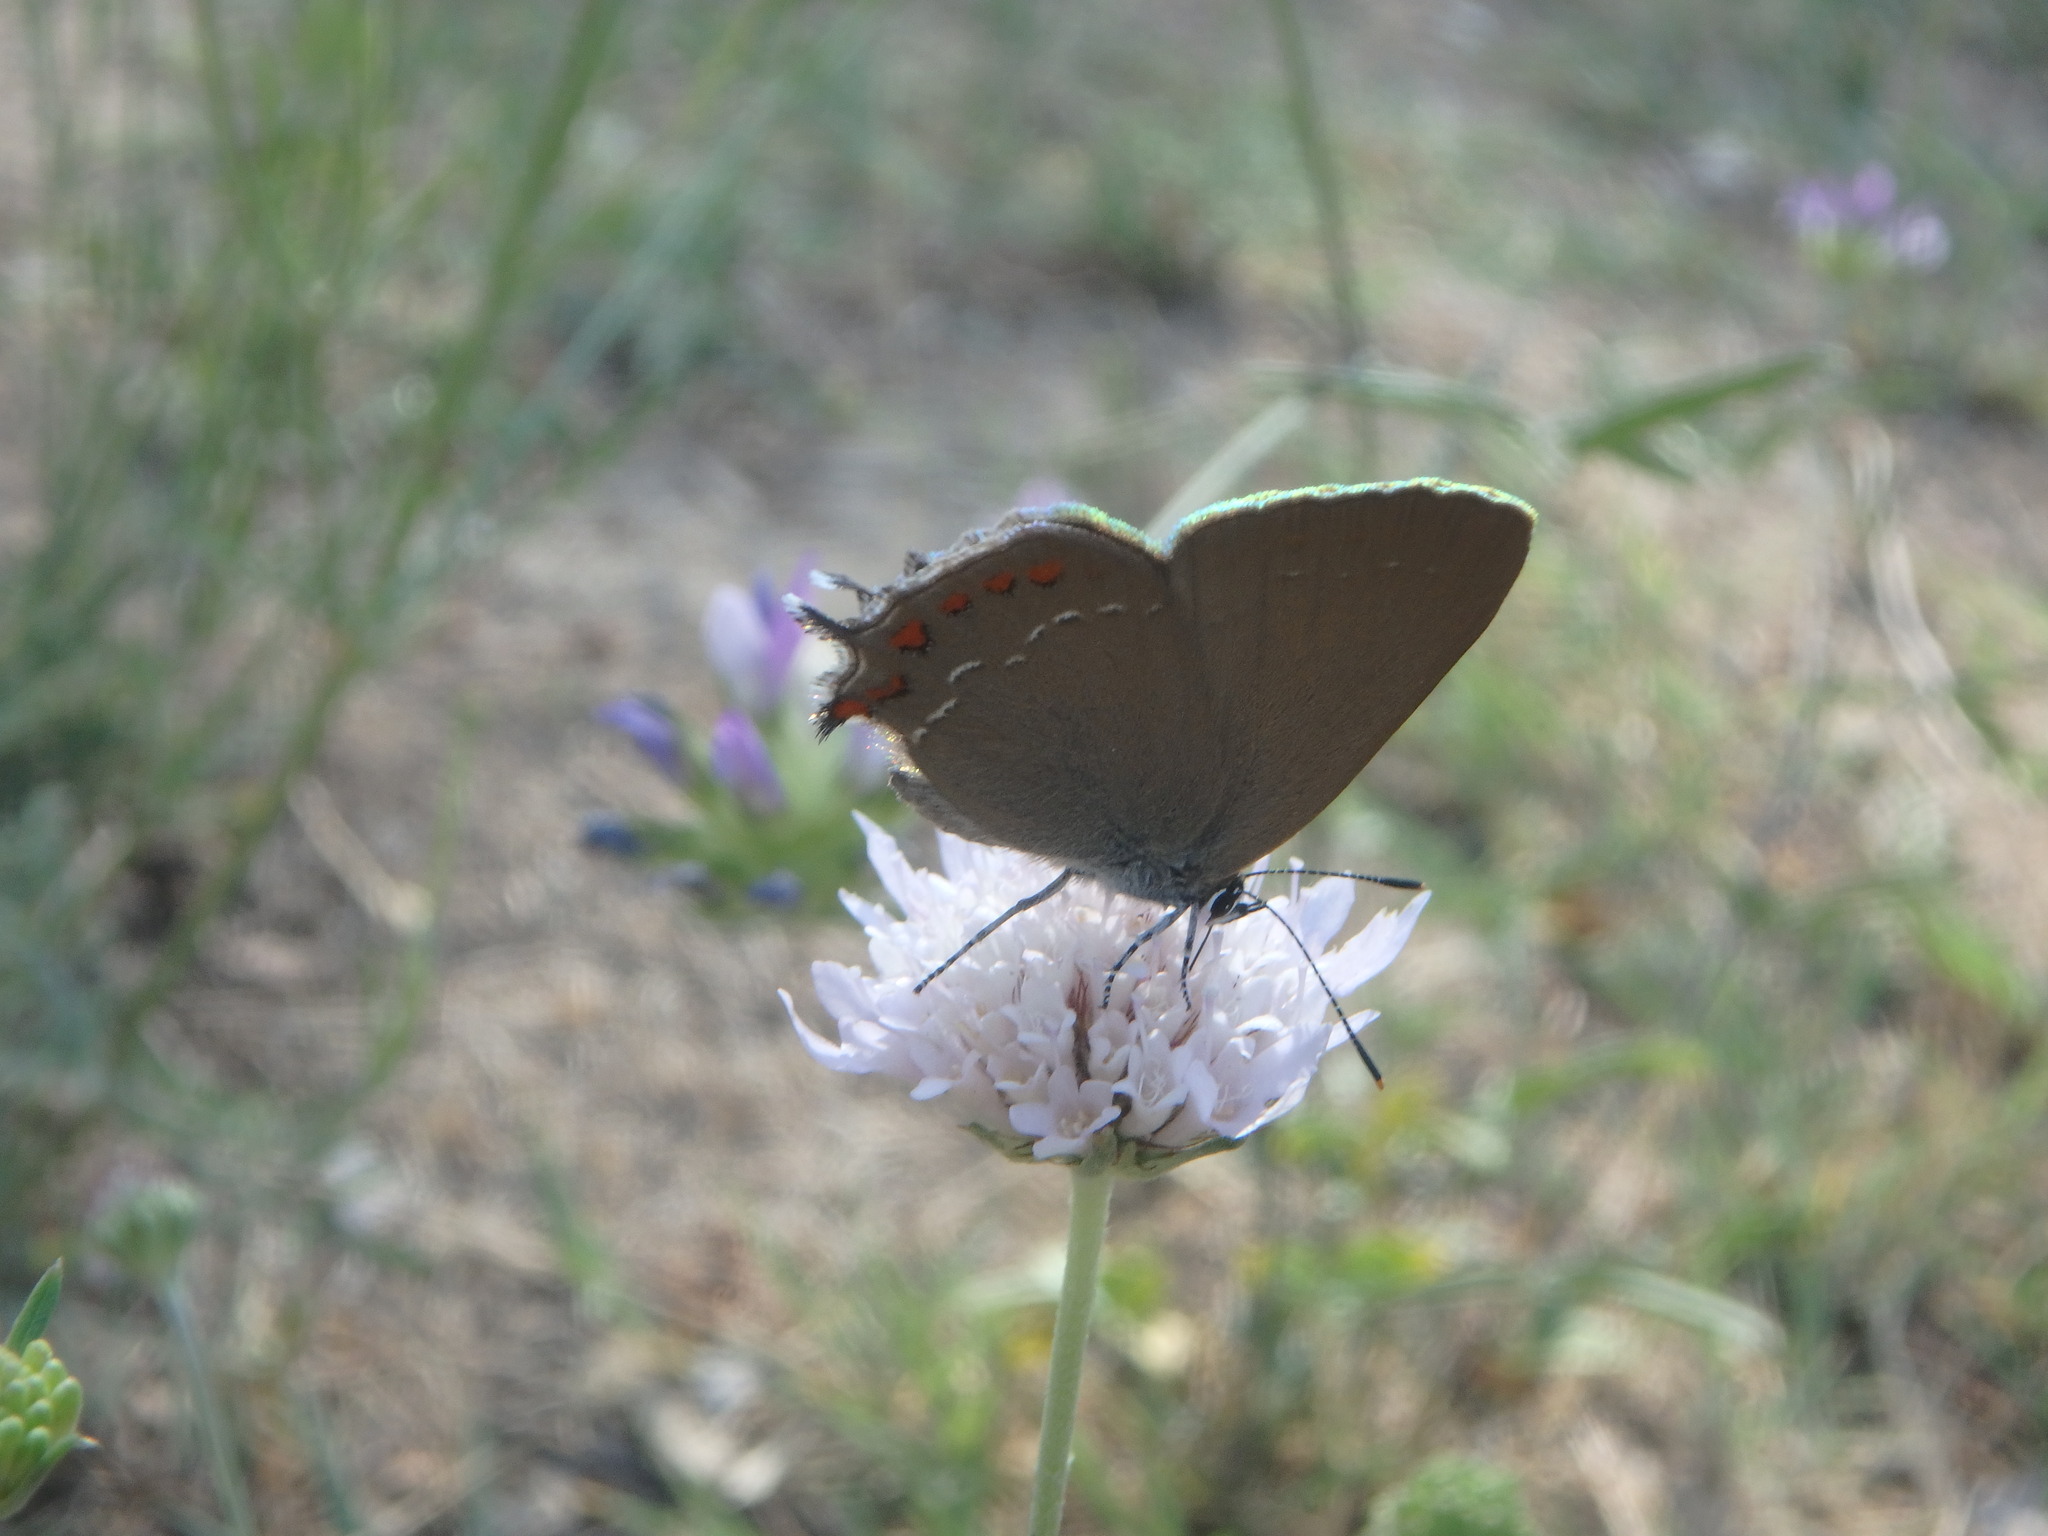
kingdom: Animalia
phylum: Arthropoda
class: Insecta
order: Lepidoptera
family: Lycaenidae
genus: Fixsenia
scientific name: Fixsenia esculi
